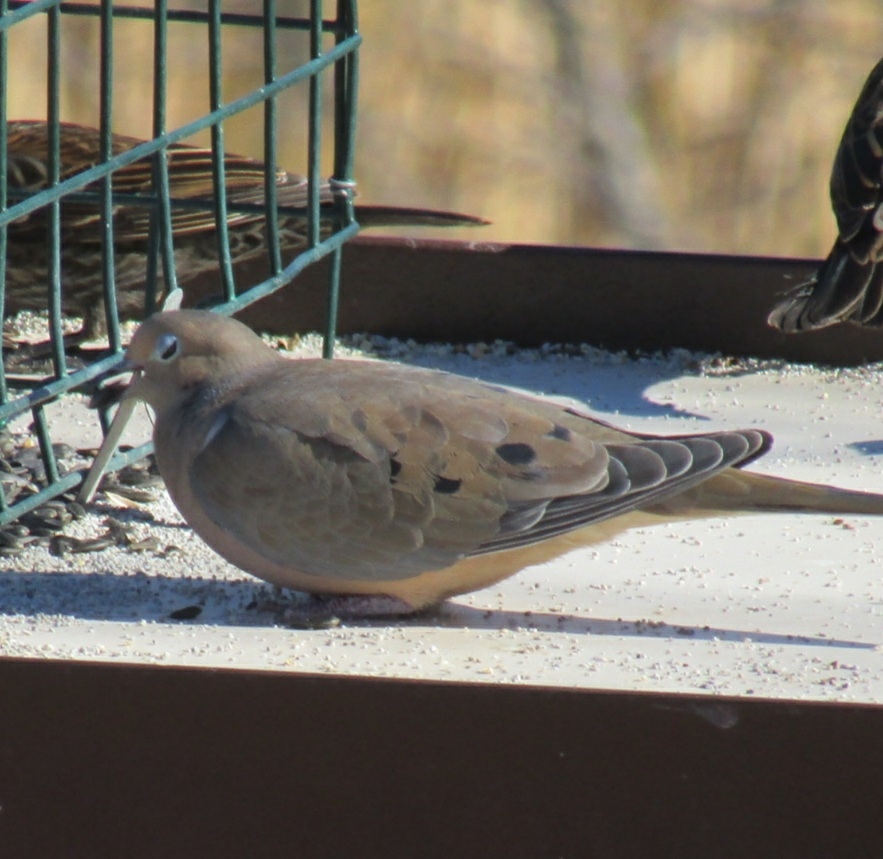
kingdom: Animalia
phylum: Chordata
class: Aves
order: Columbiformes
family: Columbidae
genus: Zenaida
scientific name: Zenaida macroura
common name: Mourning dove
